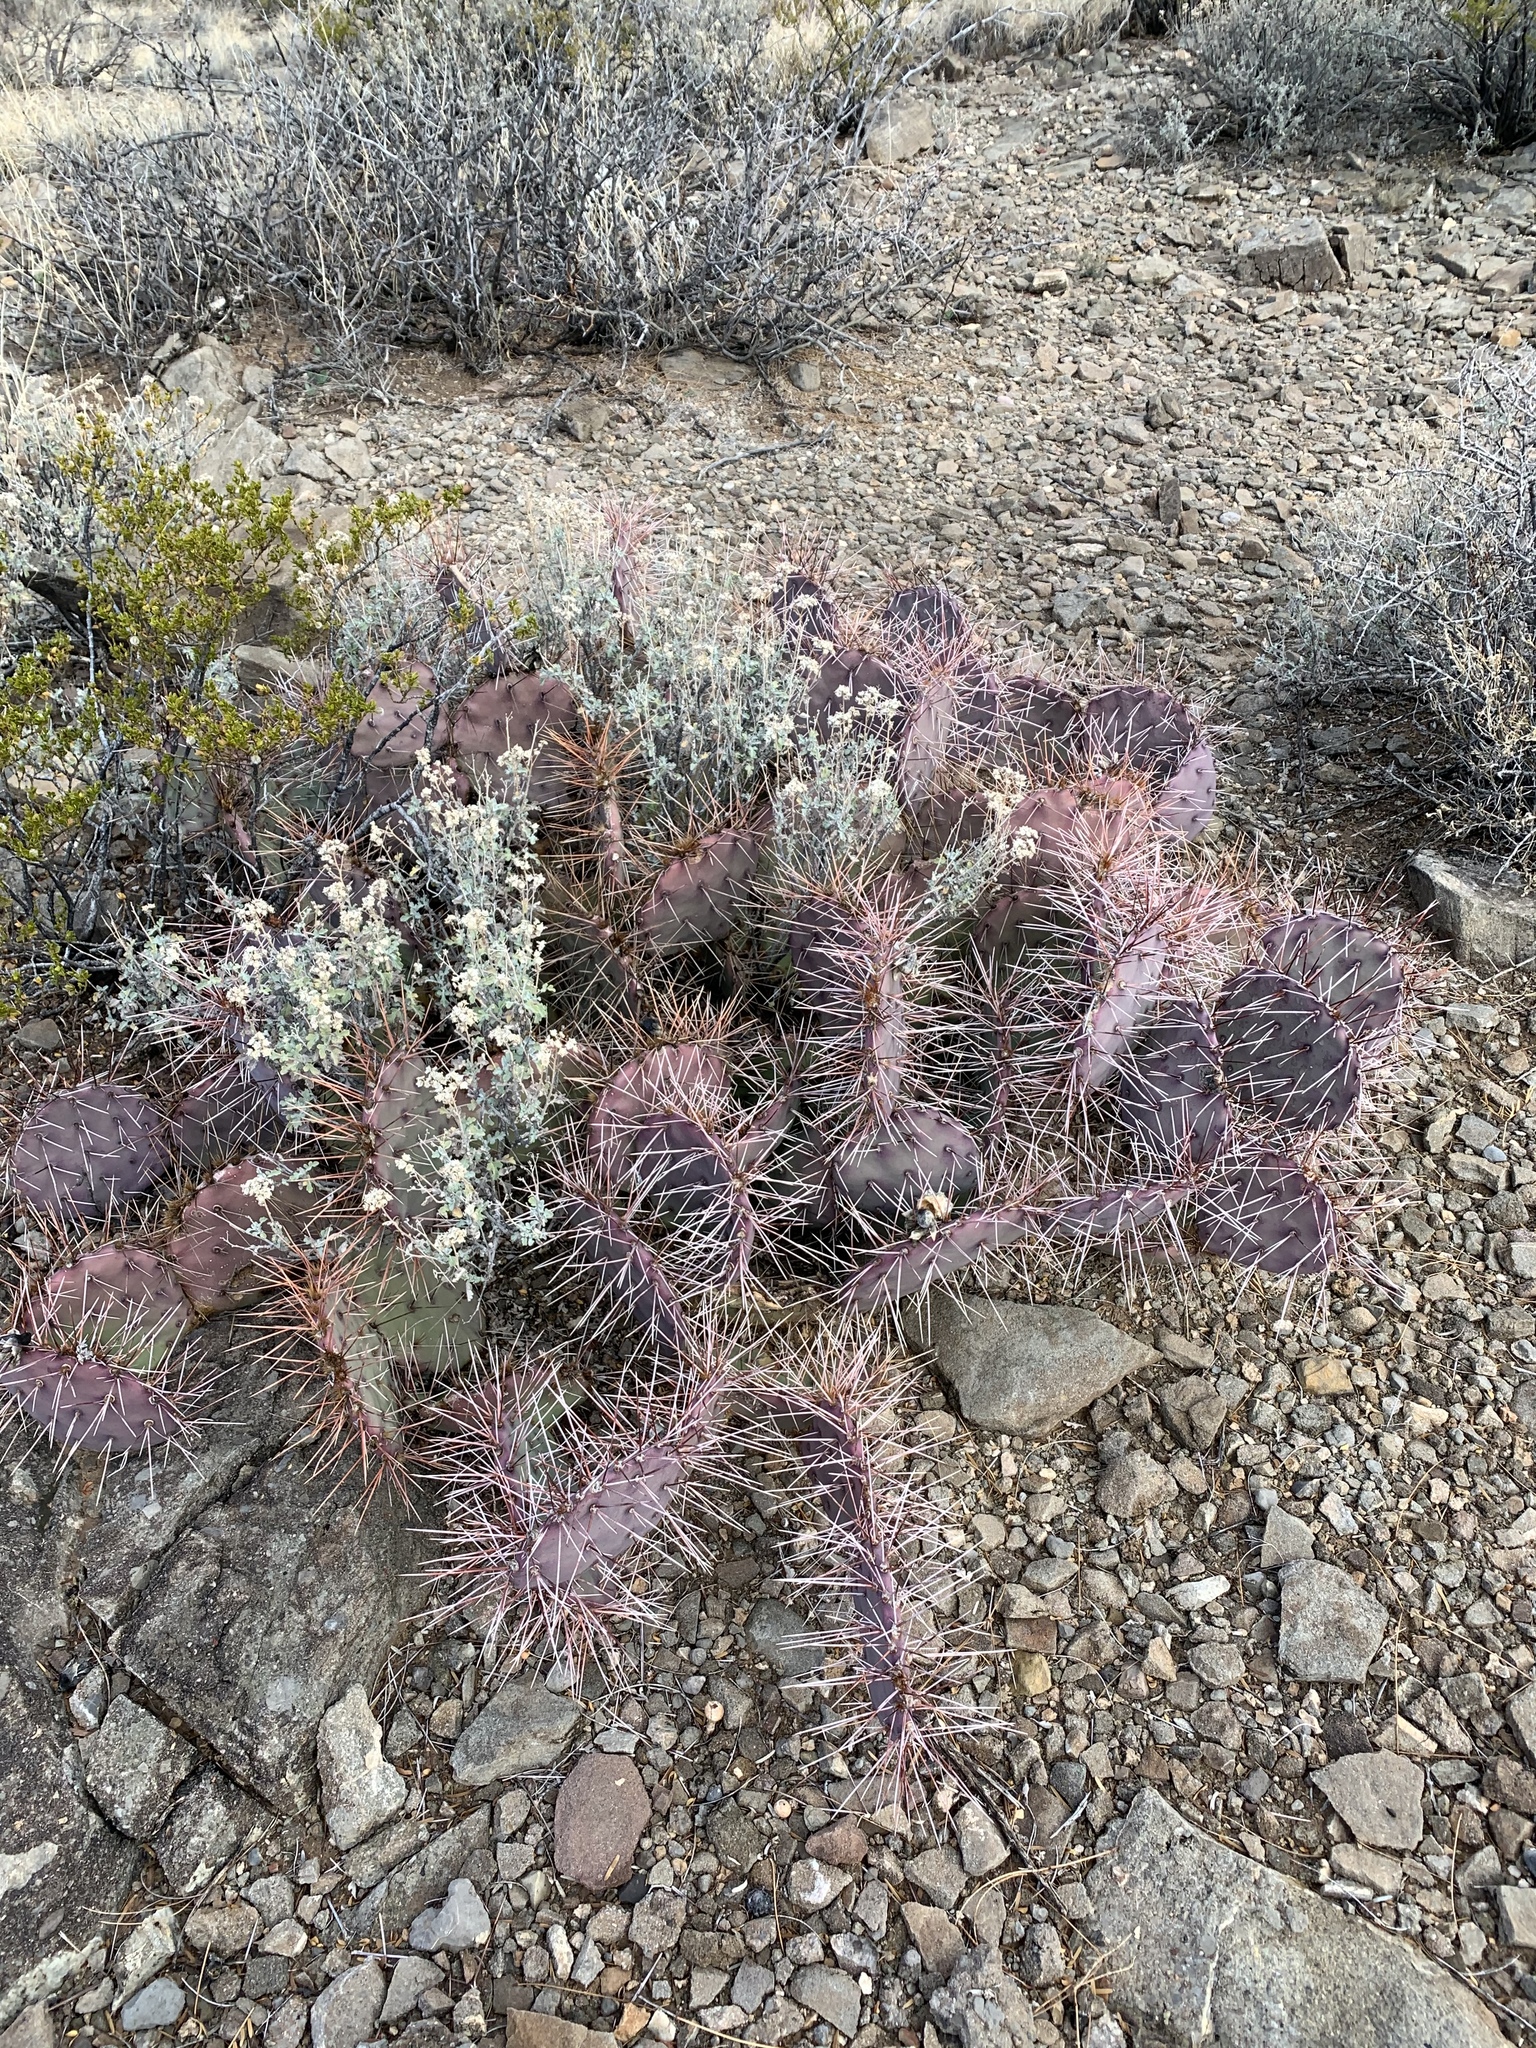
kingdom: Plantae
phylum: Tracheophyta
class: Magnoliopsida
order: Caryophyllales
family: Cactaceae
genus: Opuntia
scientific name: Opuntia macrocentra
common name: Purple prickly-pear
